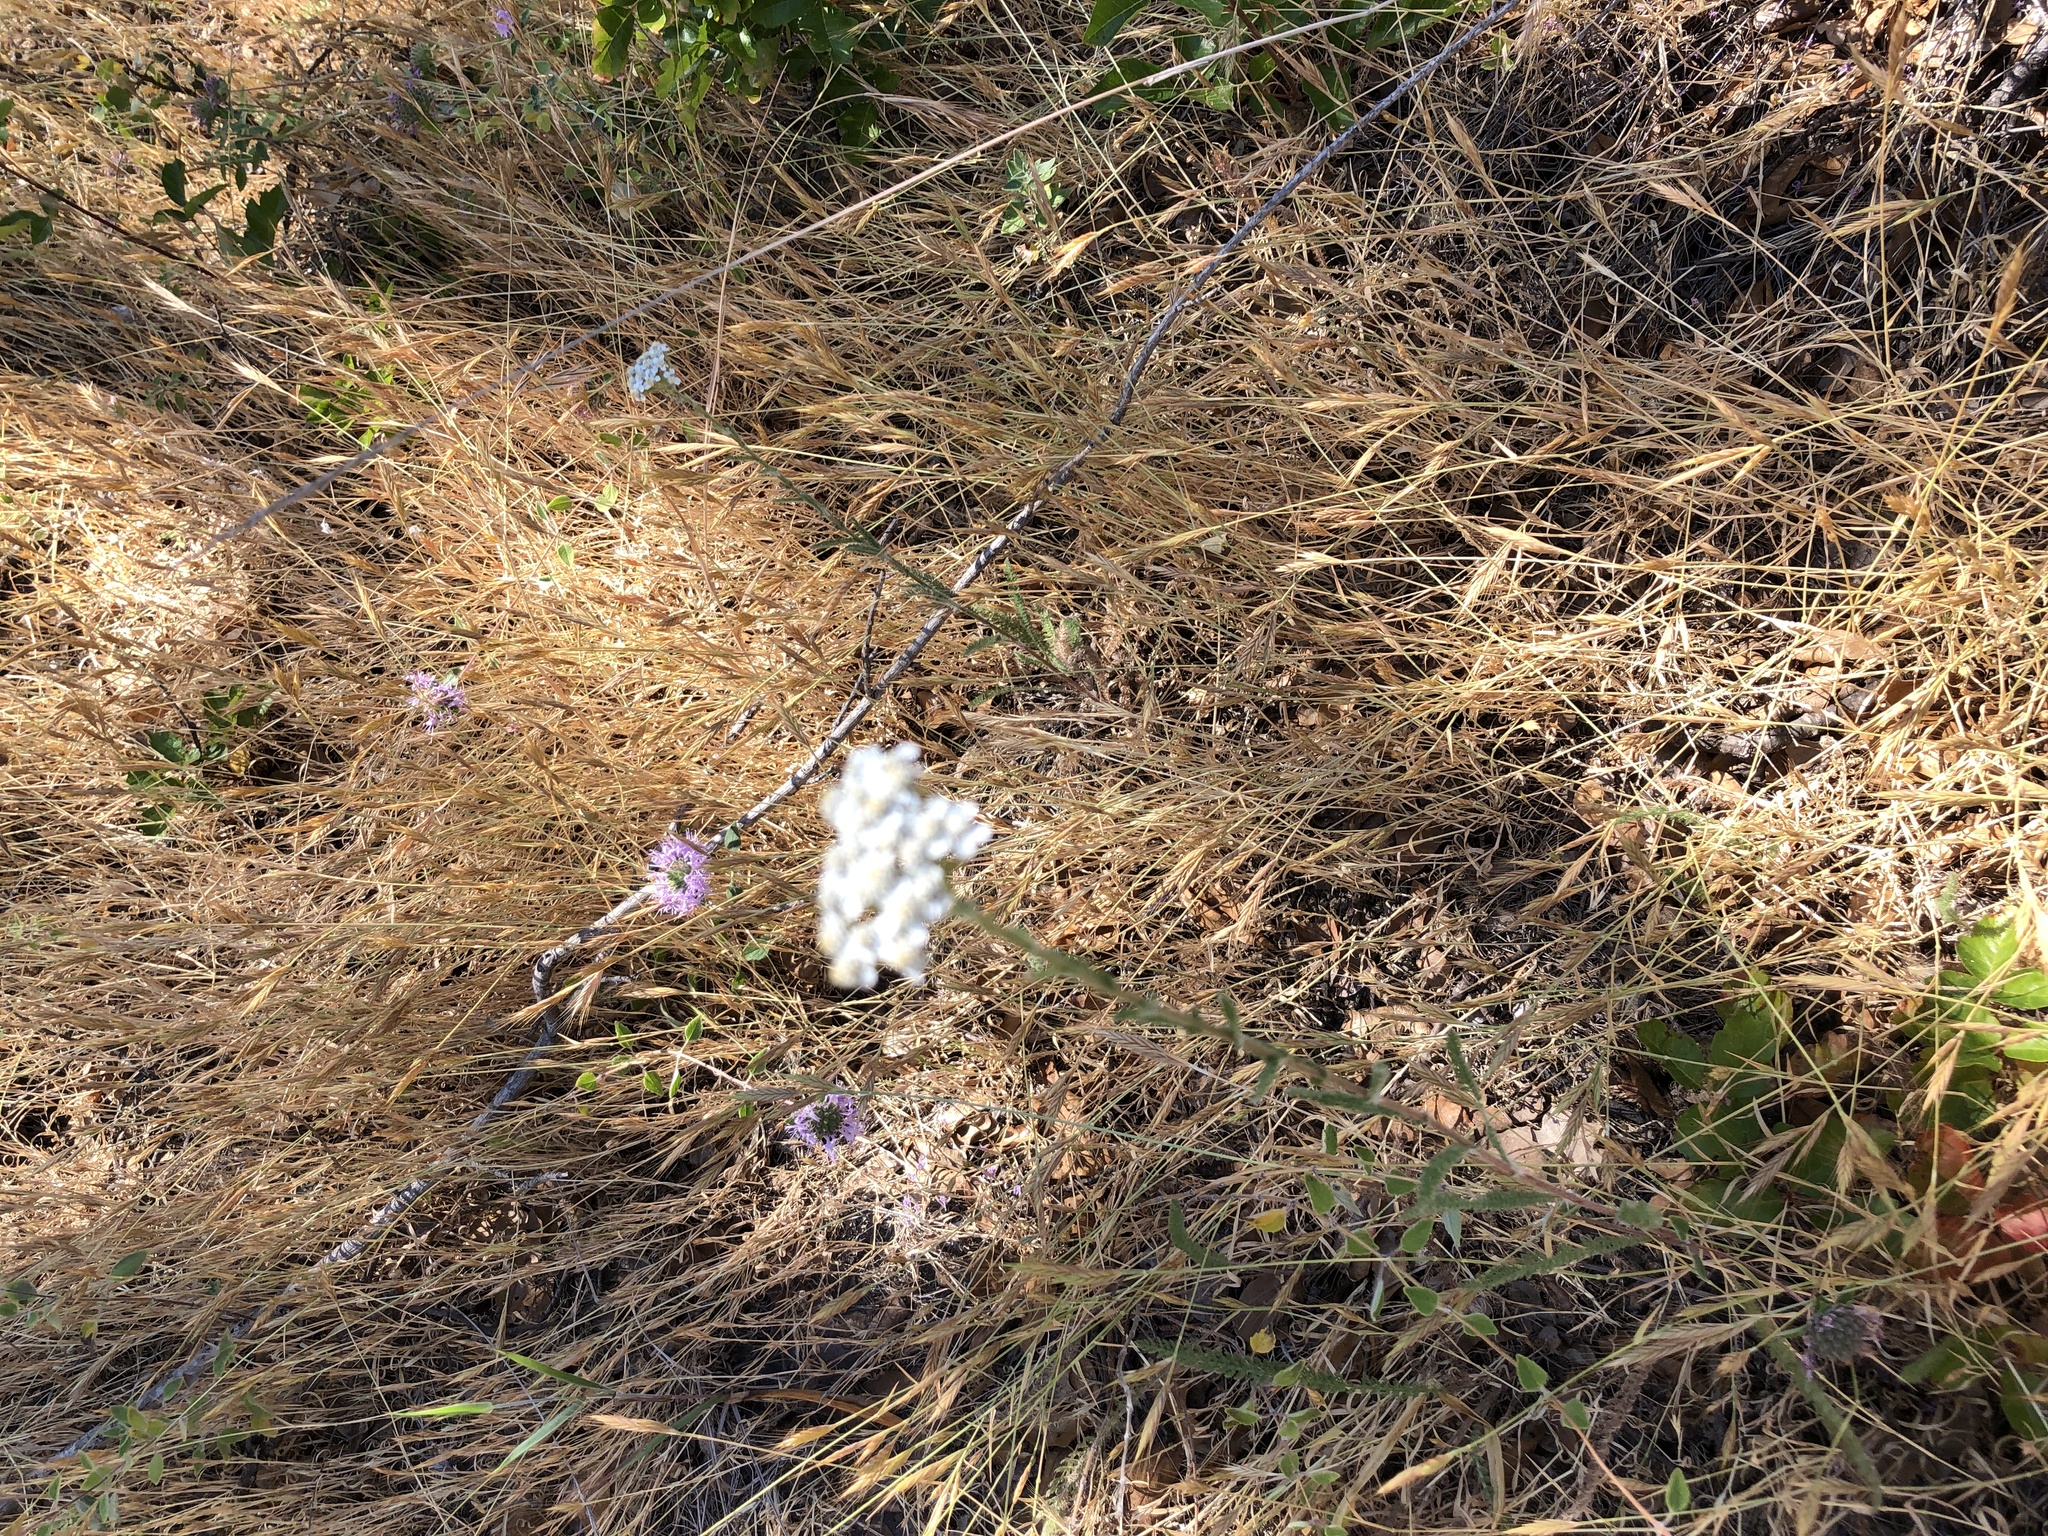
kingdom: Plantae
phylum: Tracheophyta
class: Magnoliopsida
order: Asterales
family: Asteraceae
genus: Achillea
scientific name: Achillea millefolium
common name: Yarrow
